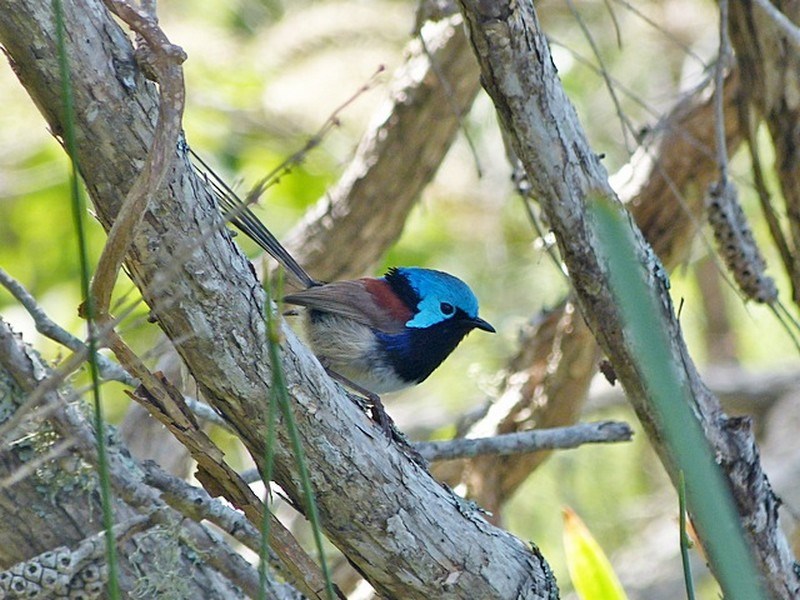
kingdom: Animalia
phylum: Chordata
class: Aves
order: Passeriformes
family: Maluridae
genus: Malurus
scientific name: Malurus lamberti
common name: Variegated fairywren
